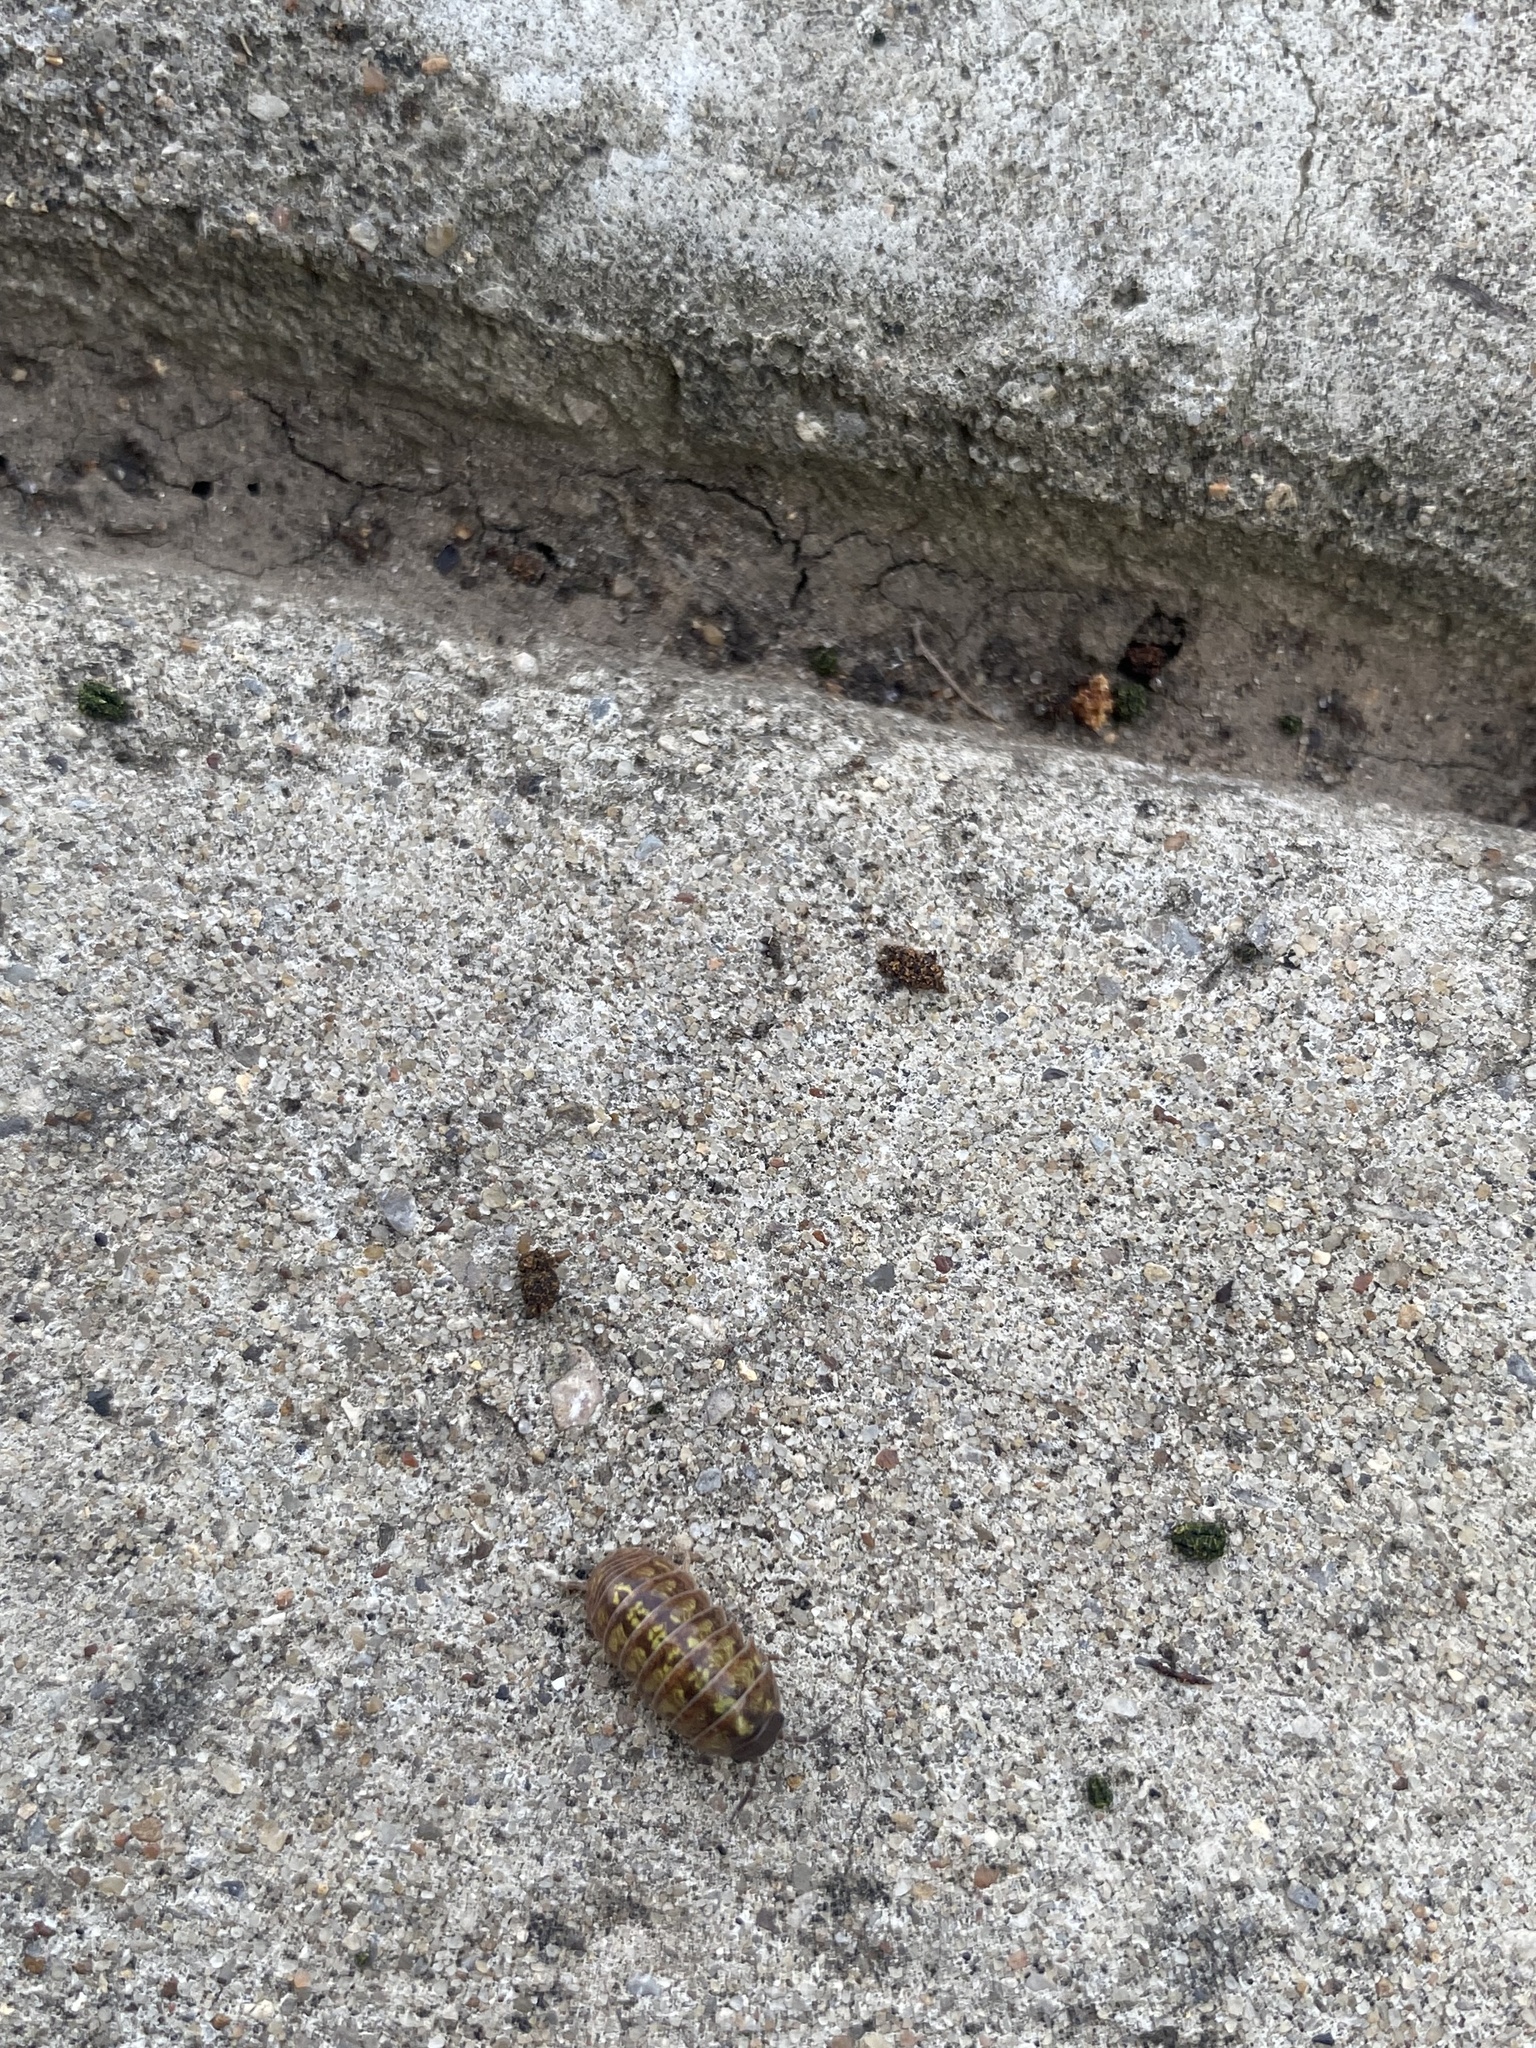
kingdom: Animalia
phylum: Arthropoda
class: Malacostraca
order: Isopoda
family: Armadillidiidae
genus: Armadillidium
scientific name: Armadillidium vulgare
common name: Common pill woodlouse
